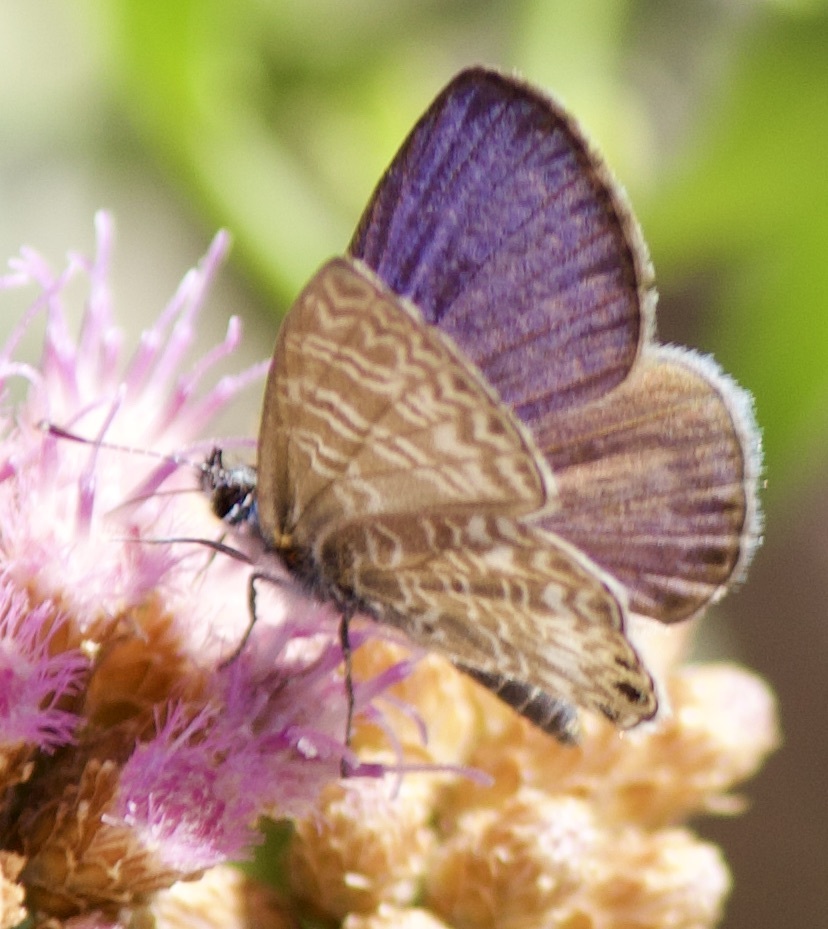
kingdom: Animalia
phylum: Arthropoda
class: Insecta
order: Lepidoptera
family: Lycaenidae
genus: Leptotes
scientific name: Leptotes trigemmatus
